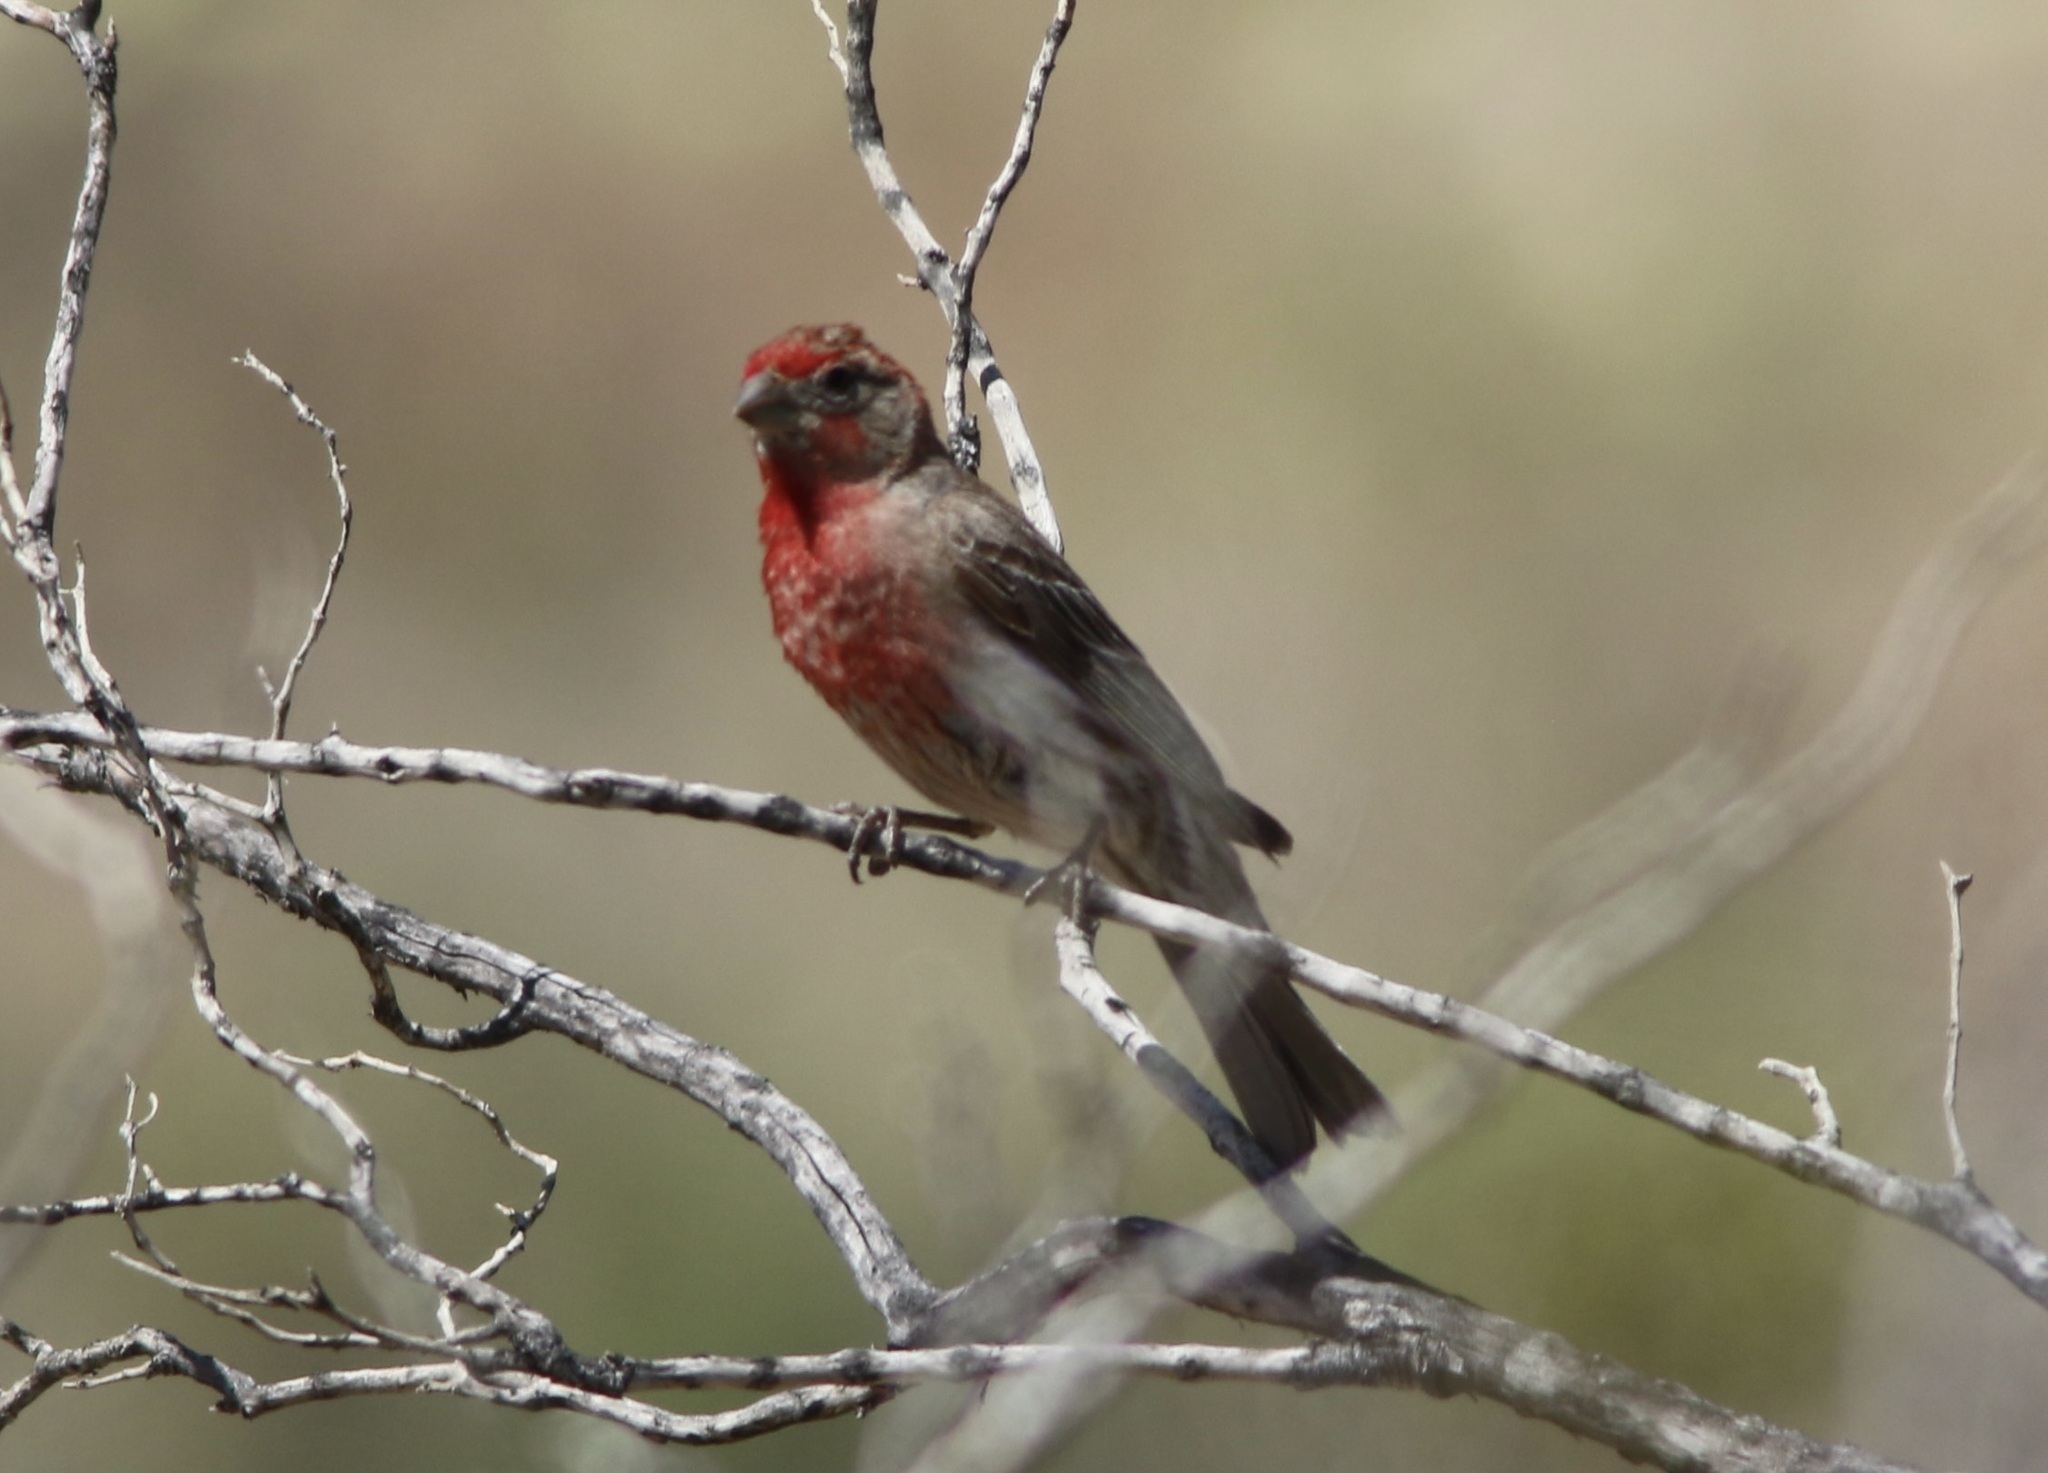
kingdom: Animalia
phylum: Chordata
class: Aves
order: Passeriformes
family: Fringillidae
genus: Haemorhous
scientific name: Haemorhous mexicanus
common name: House finch
